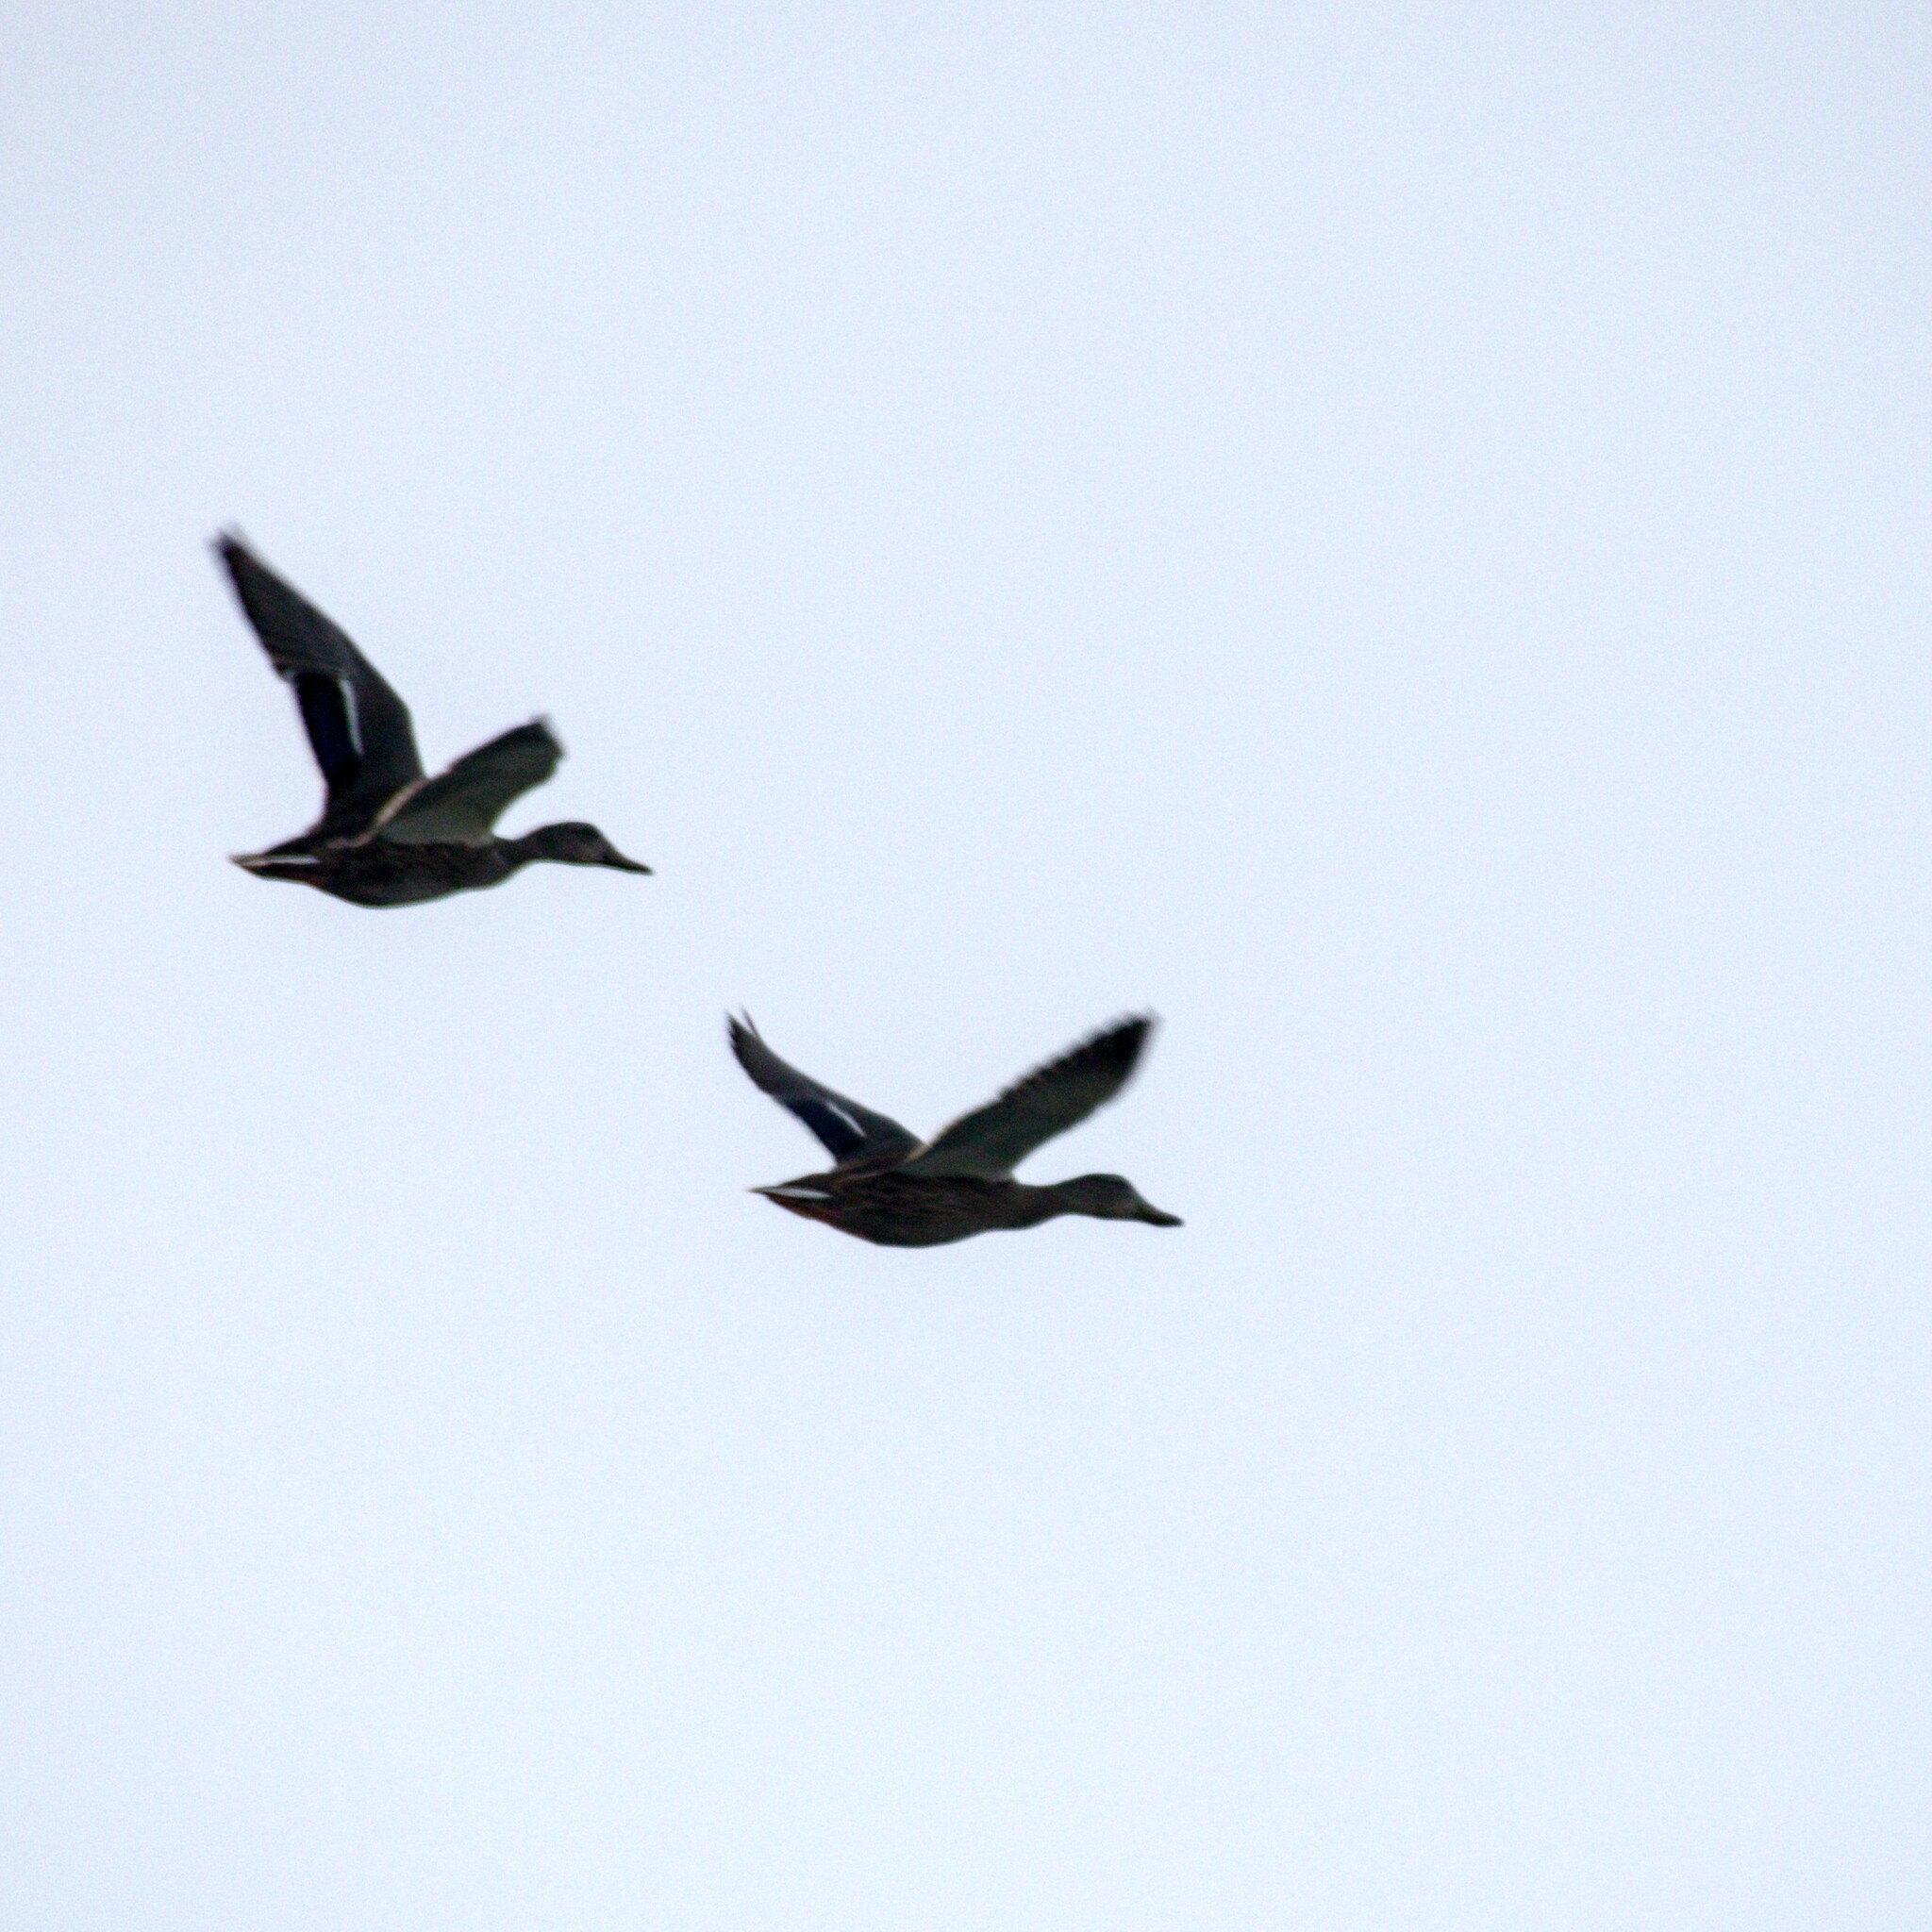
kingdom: Animalia
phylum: Chordata
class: Aves
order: Anseriformes
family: Anatidae
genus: Anas
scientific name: Anas platyrhynchos
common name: Mallard
